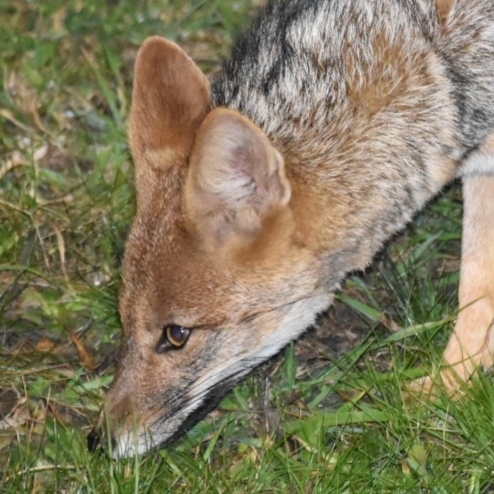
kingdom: Animalia
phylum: Chordata
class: Mammalia
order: Carnivora
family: Canidae
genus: Lycalopex
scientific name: Lycalopex gymnocercus
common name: Pampas fox
